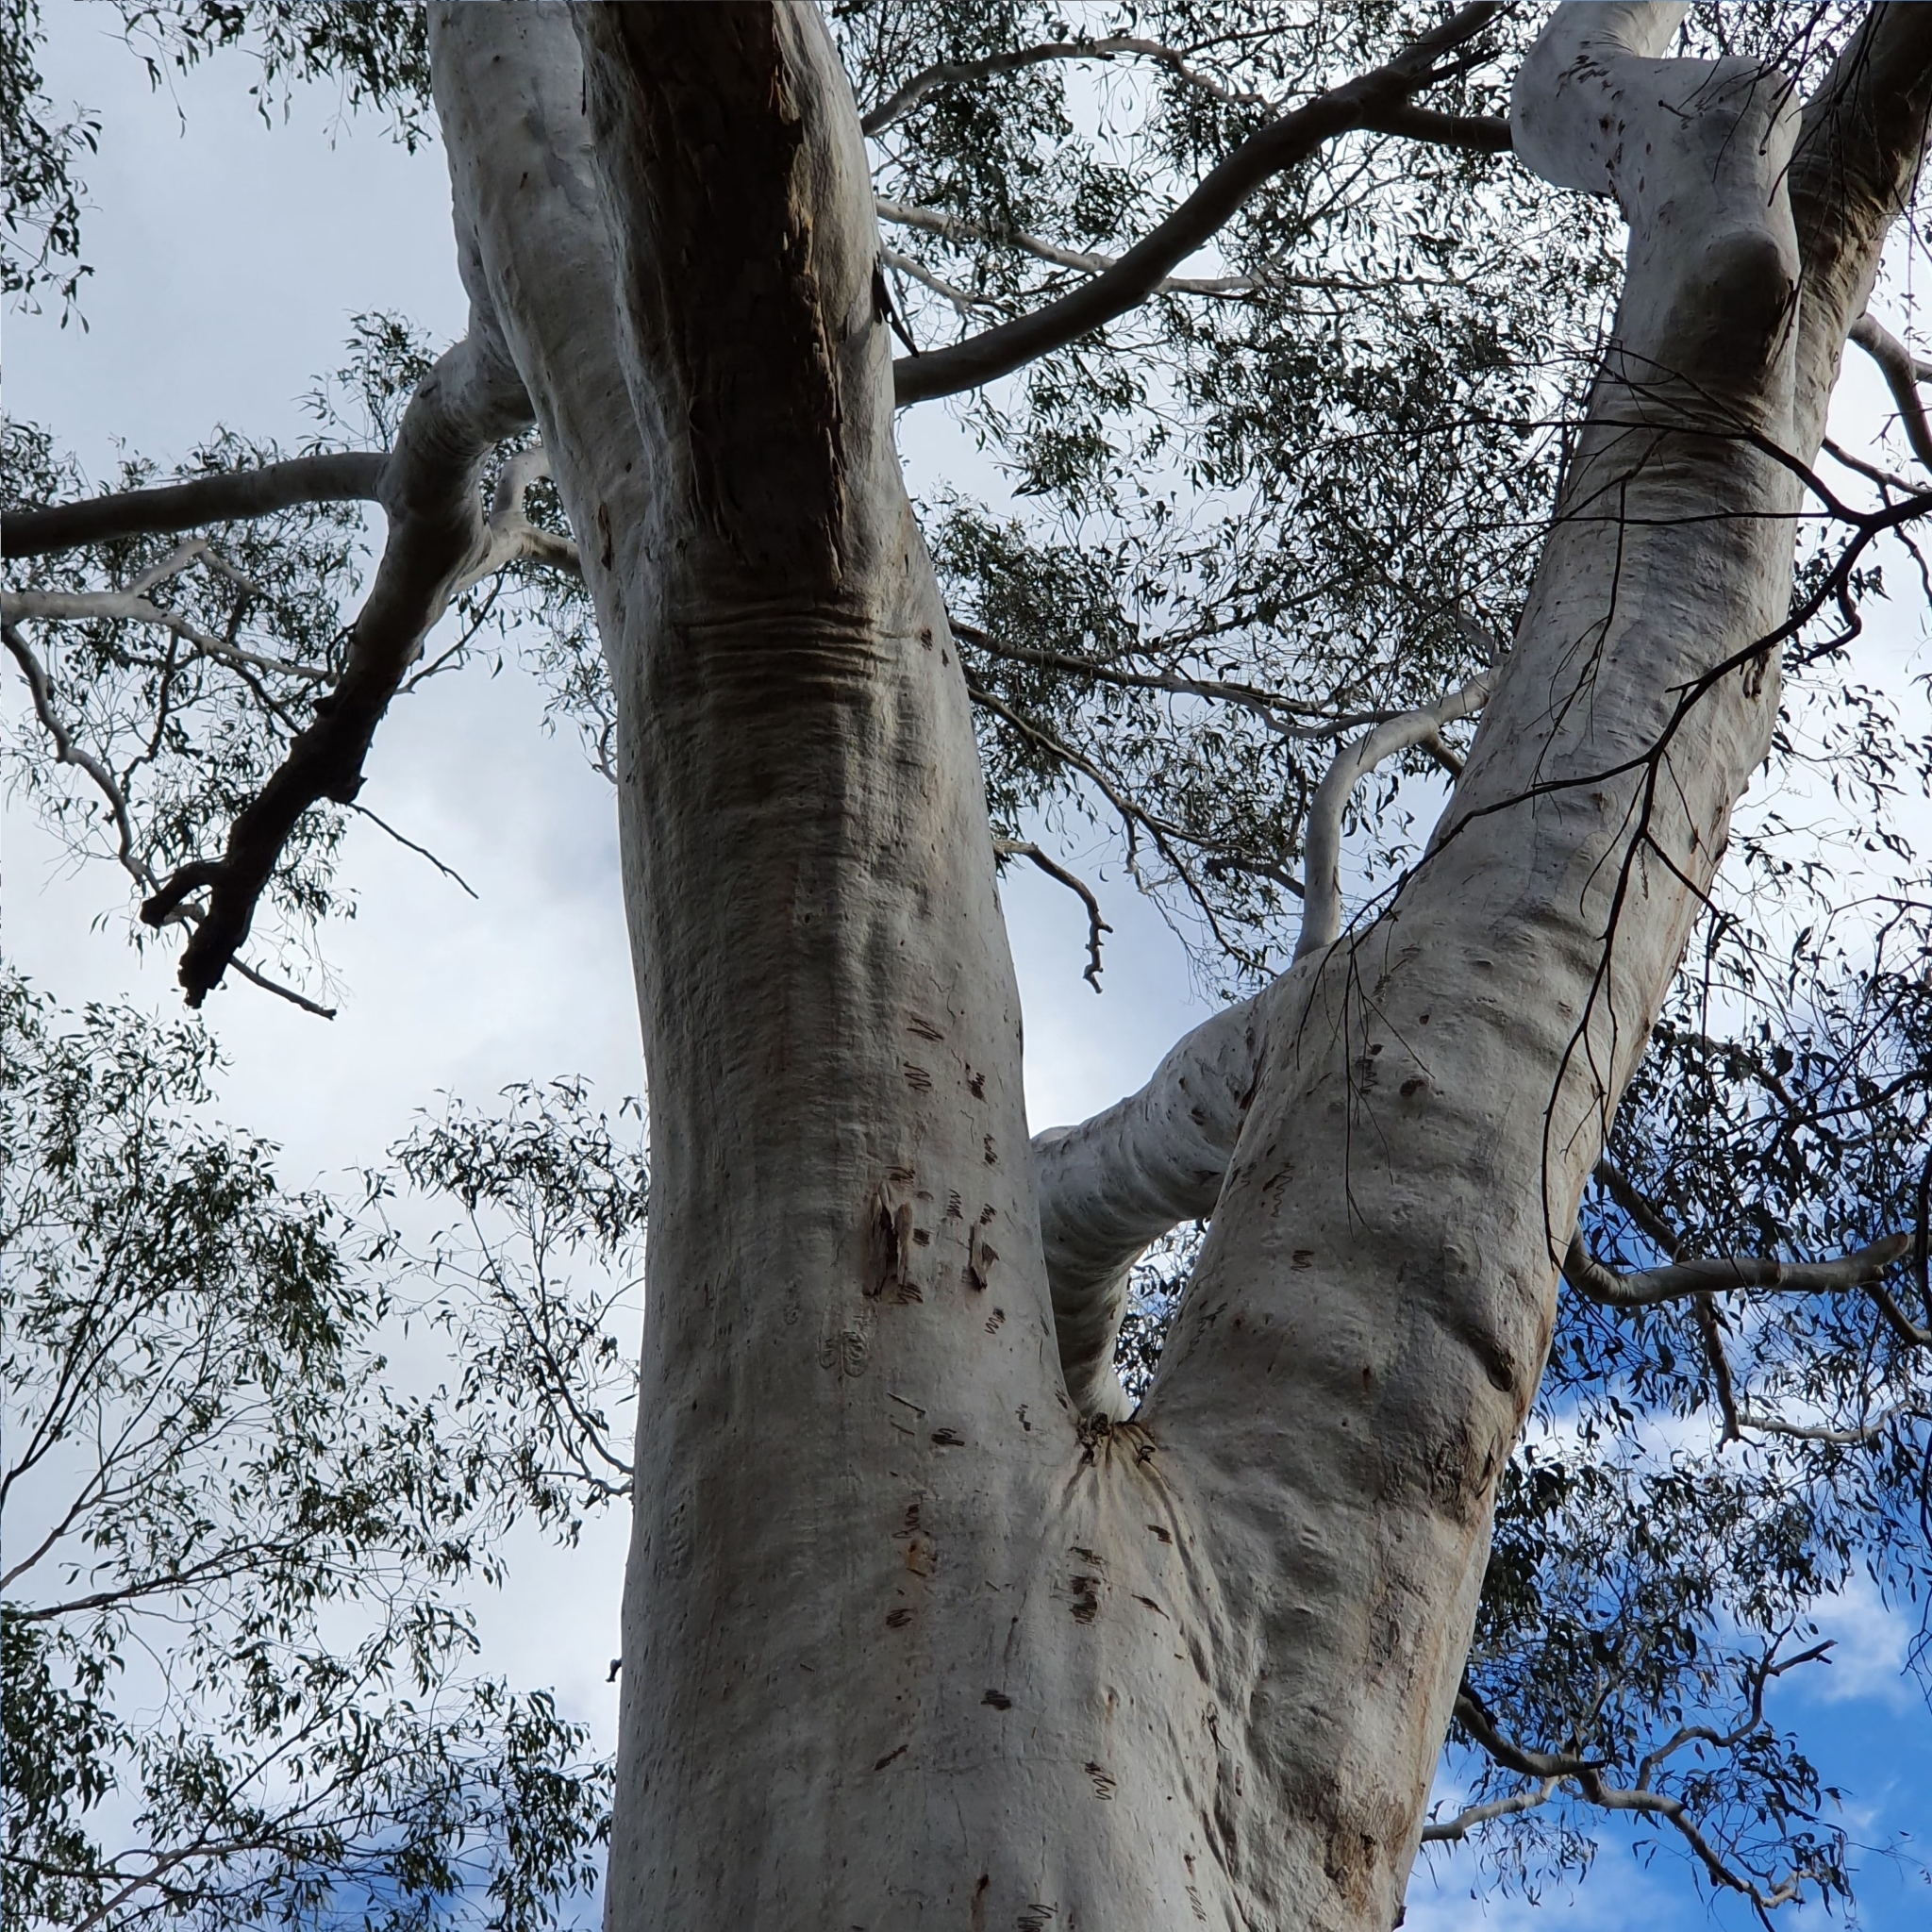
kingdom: Plantae
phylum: Tracheophyta
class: Magnoliopsida
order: Myrtales
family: Myrtaceae
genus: Eucalyptus
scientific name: Eucalyptus racemosa
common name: Scribbly gum
